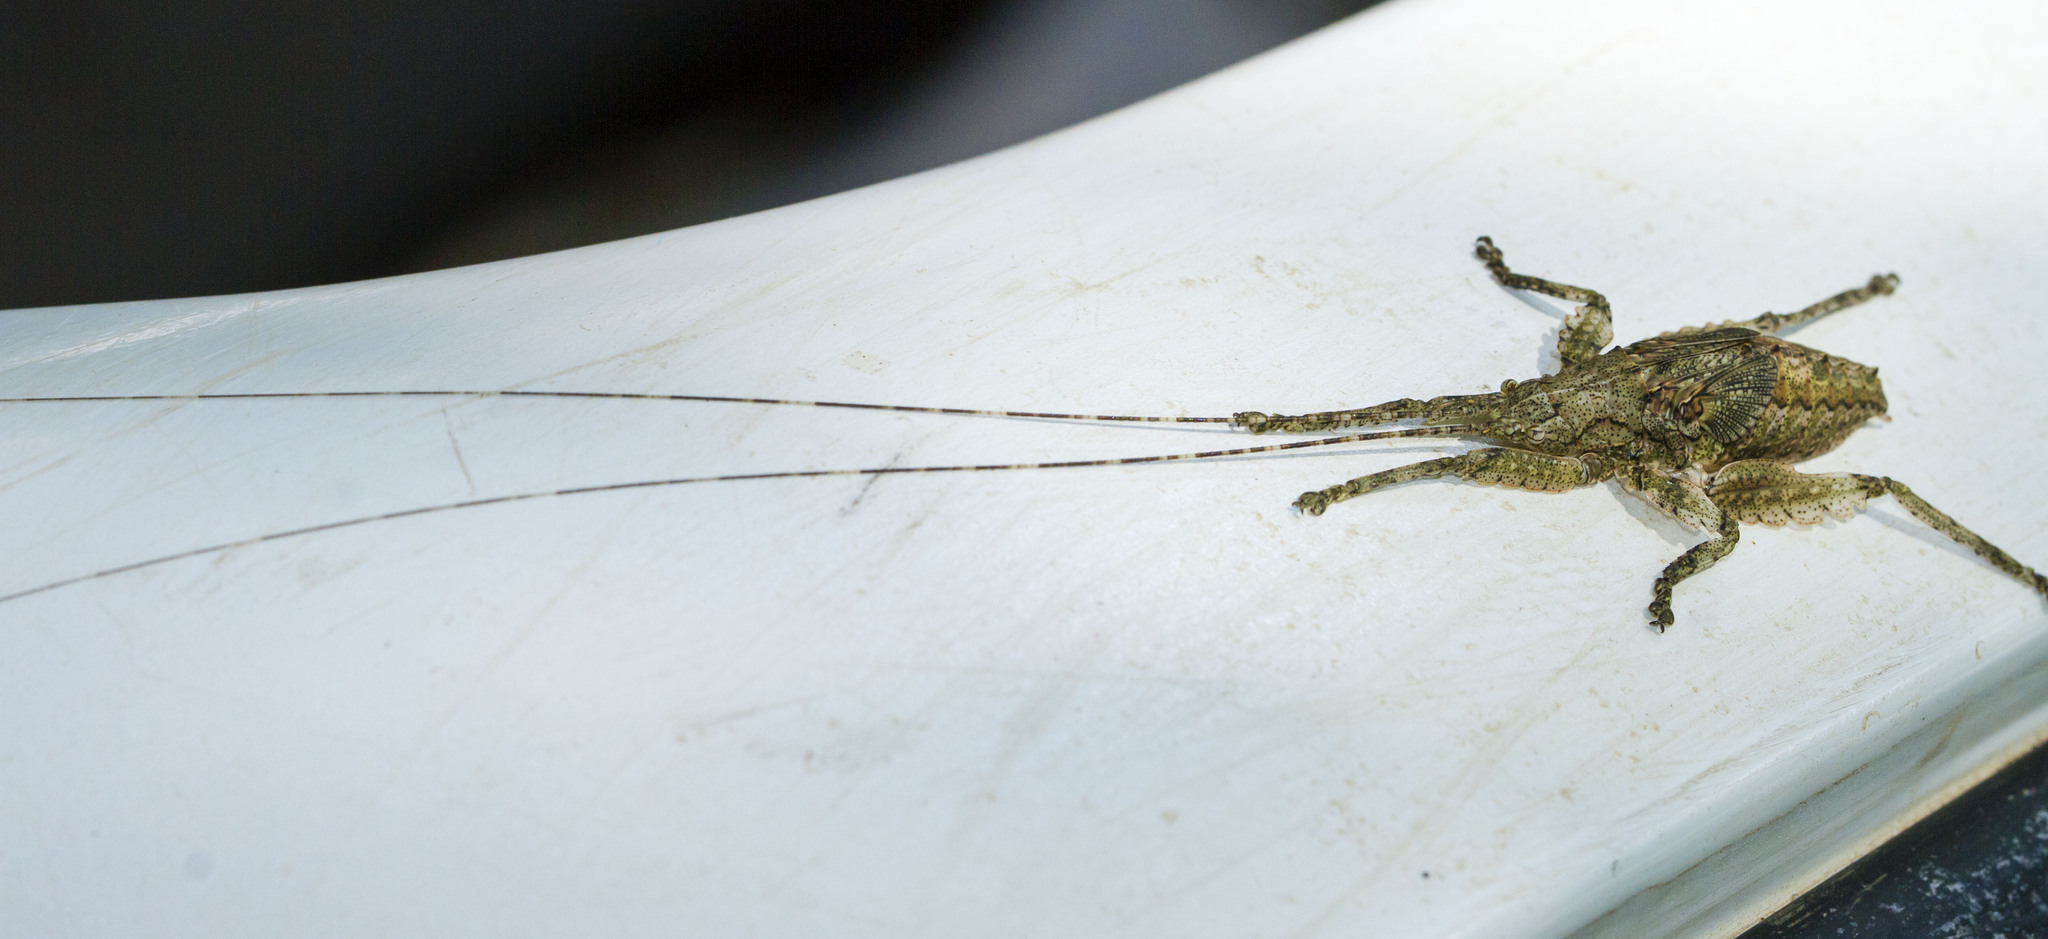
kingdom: Animalia
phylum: Arthropoda
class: Insecta
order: Orthoptera
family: Tettigoniidae
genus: Cymatomerella
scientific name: Cymatomerella spilophora
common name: Greater bark katydid
